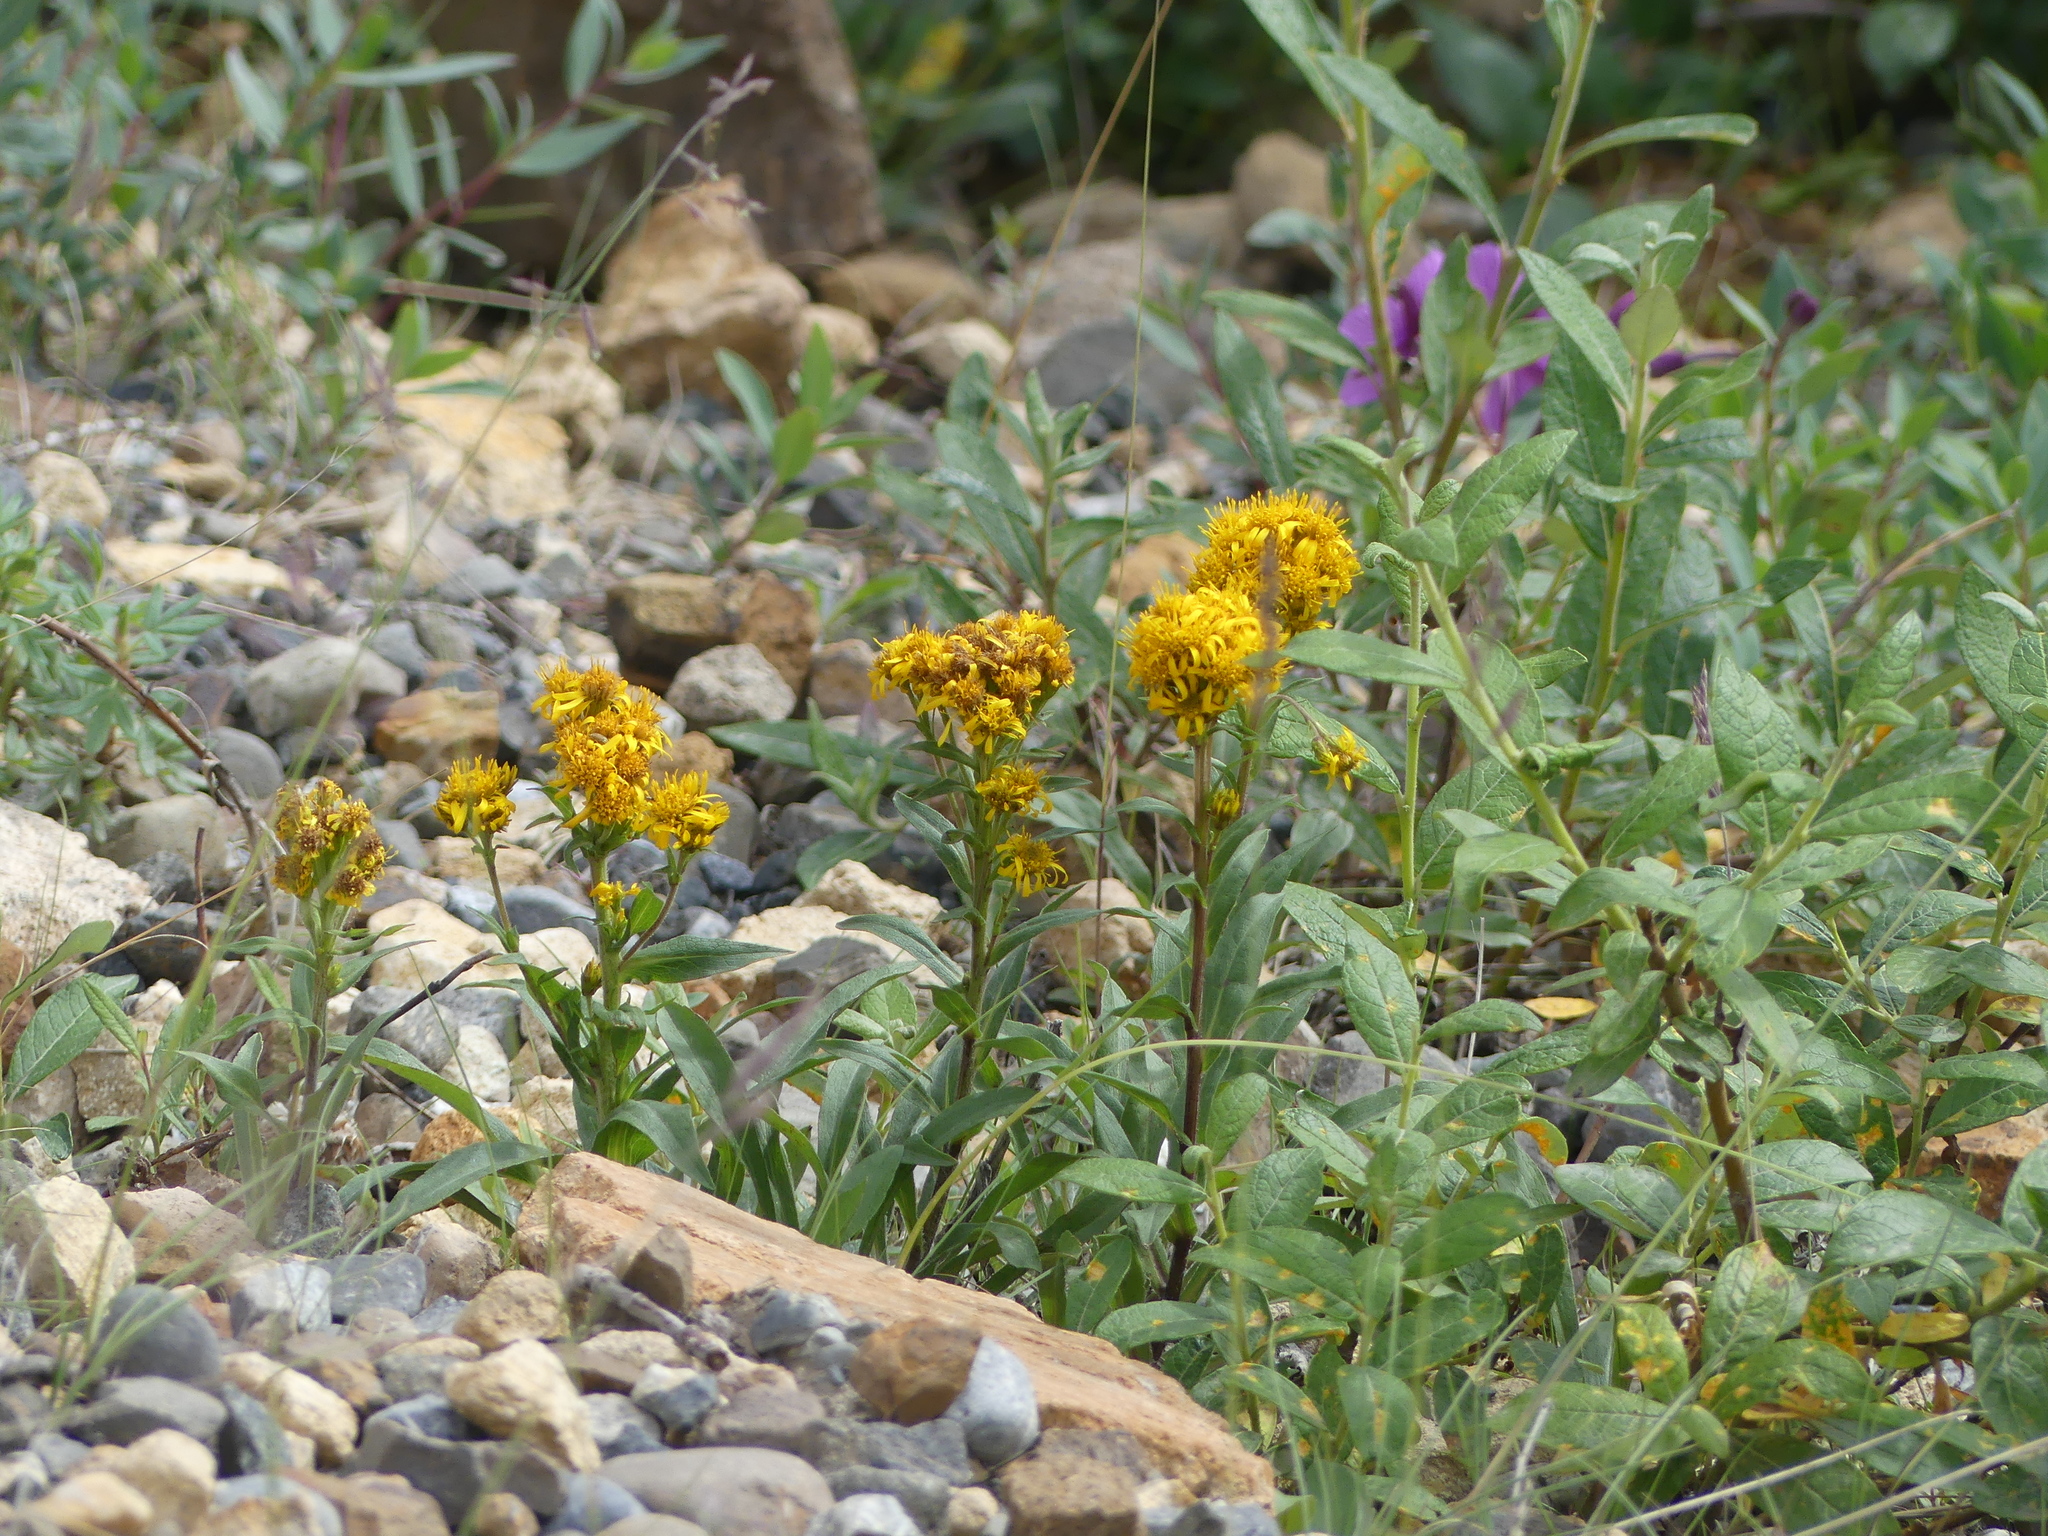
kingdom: Plantae
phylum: Tracheophyta
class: Magnoliopsida
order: Asterales
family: Asteraceae
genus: Solidago
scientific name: Solidago multiradiata
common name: Northern goldenrod
